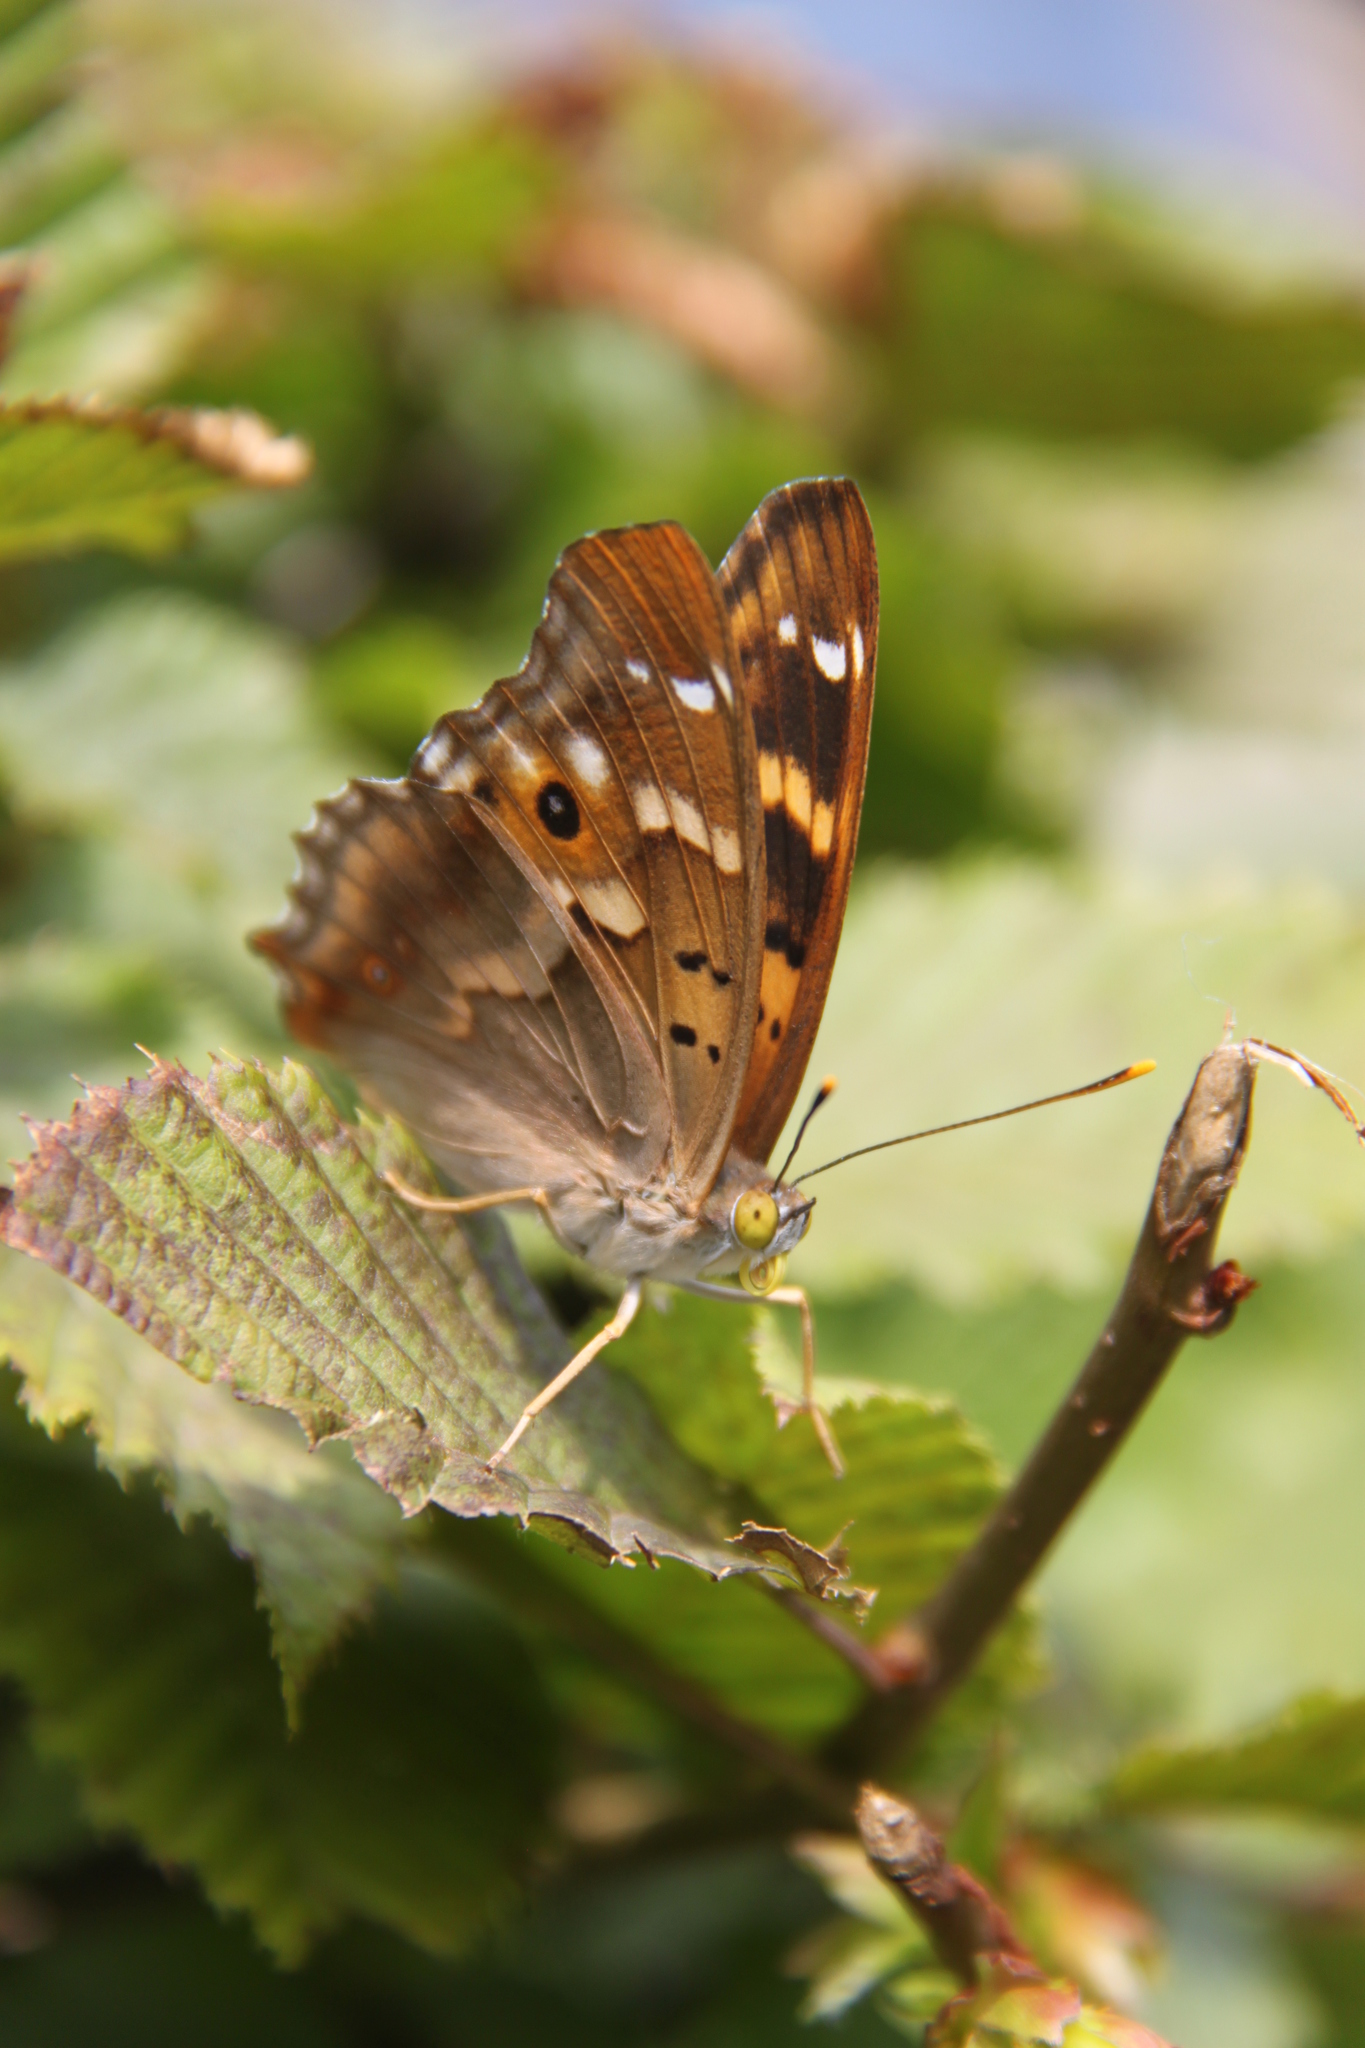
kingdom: Animalia
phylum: Arthropoda
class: Insecta
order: Lepidoptera
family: Nymphalidae
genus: Apatura
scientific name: Apatura ilia
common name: Lesser purple emperor
